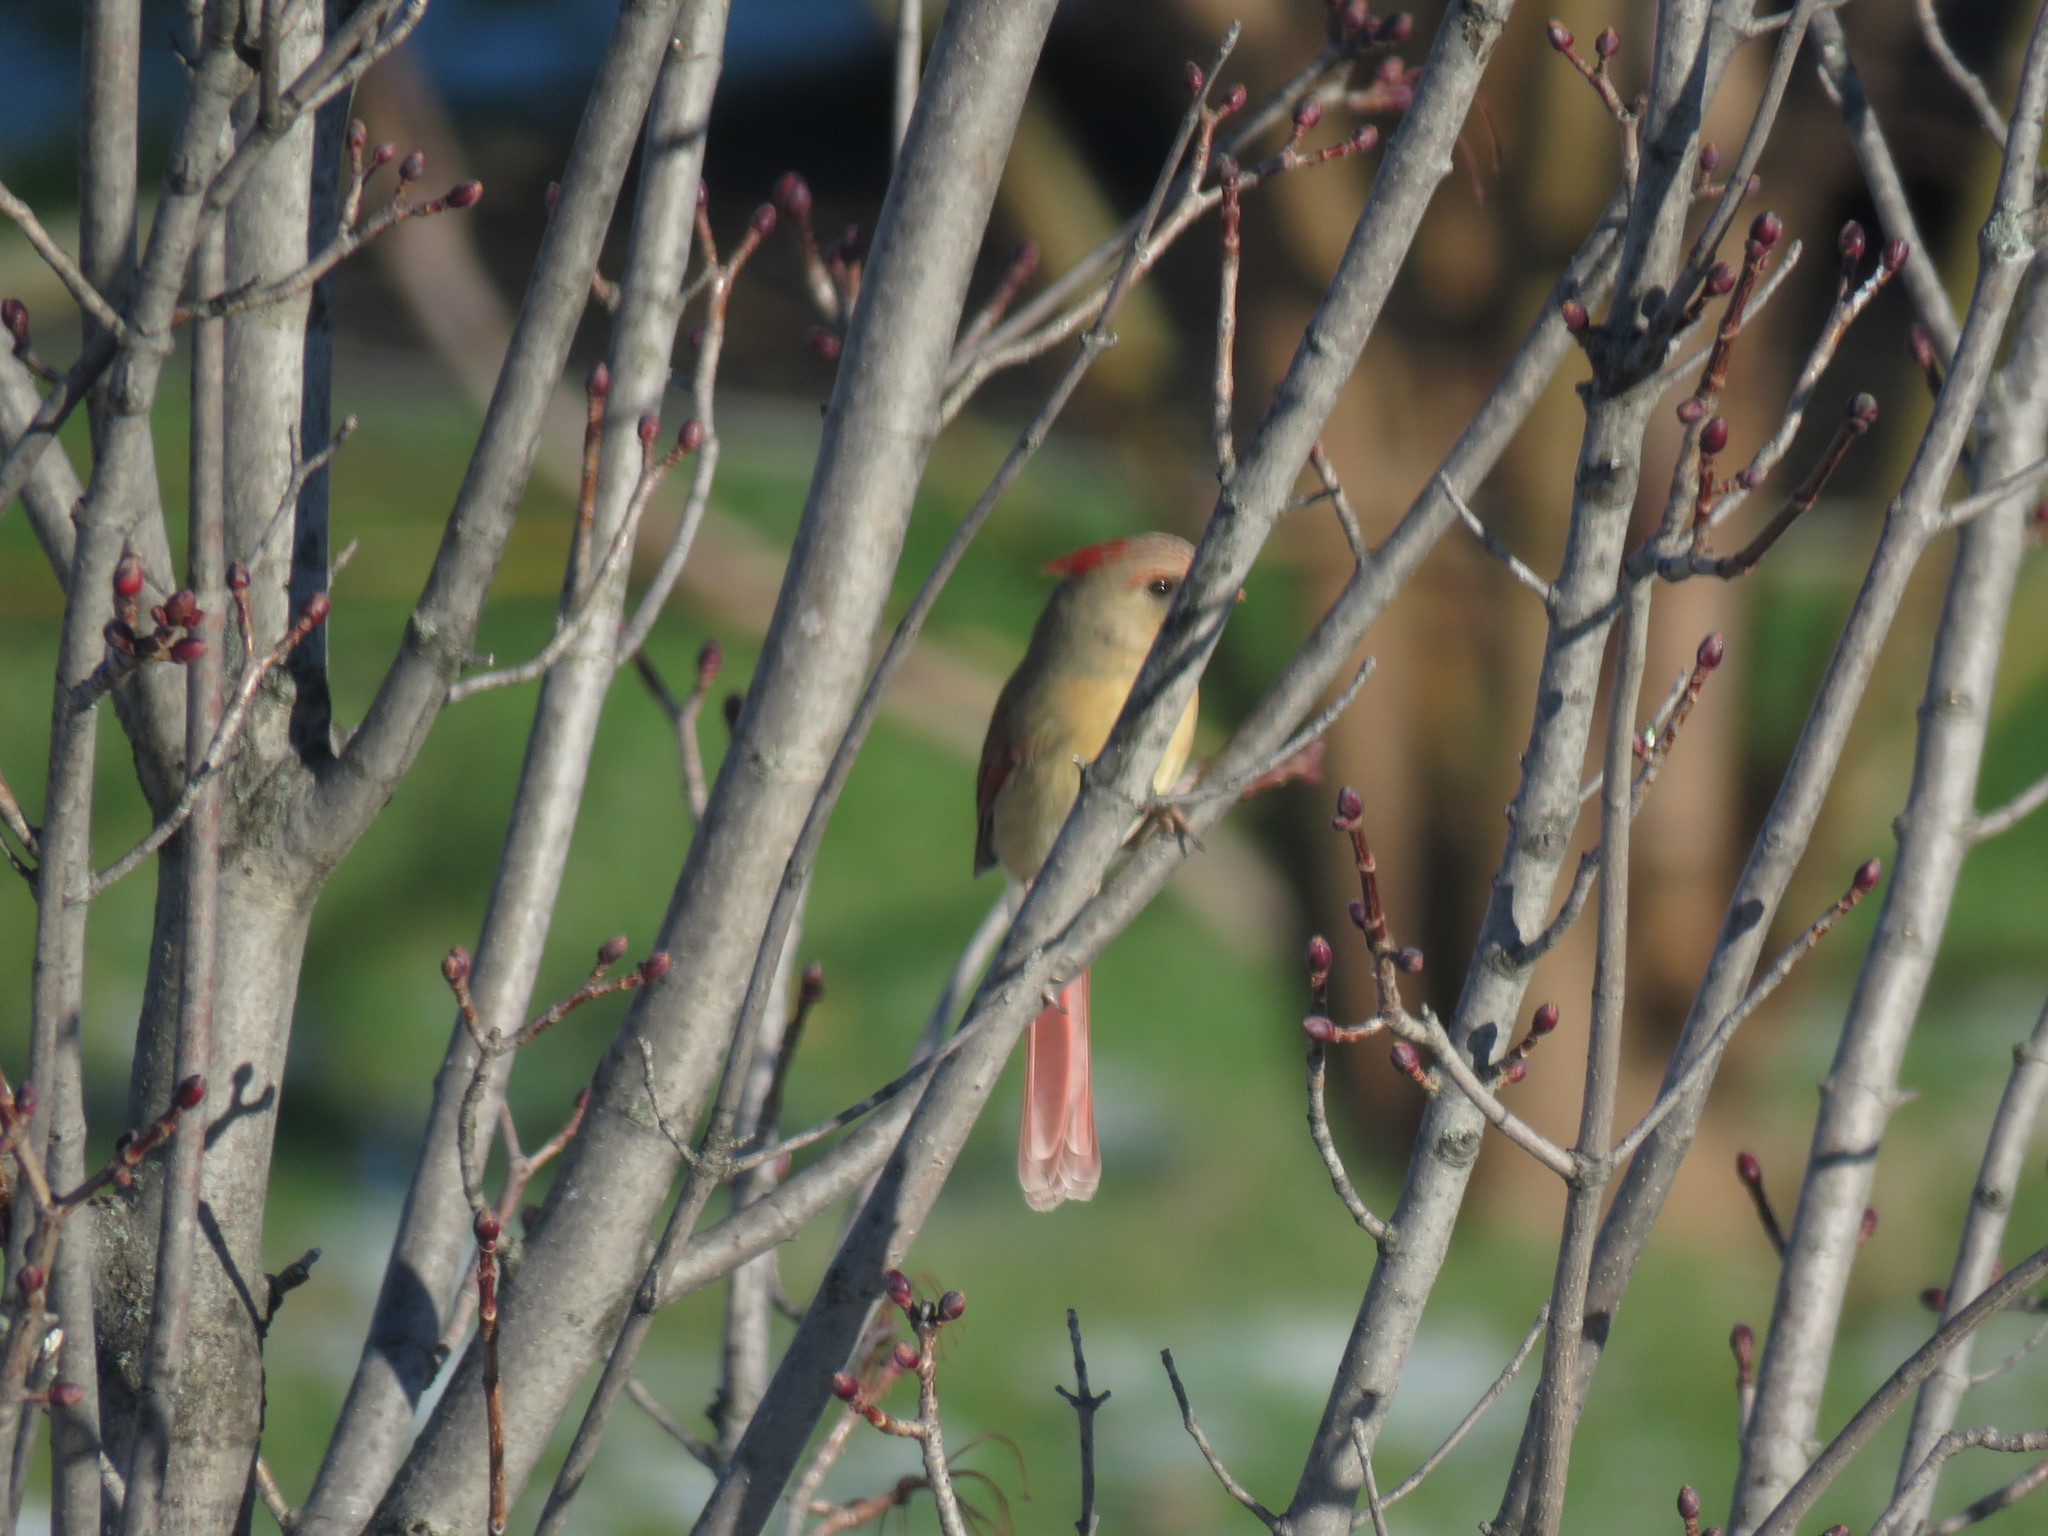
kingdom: Animalia
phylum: Chordata
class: Aves
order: Passeriformes
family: Cardinalidae
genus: Cardinalis
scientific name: Cardinalis cardinalis
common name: Northern cardinal
